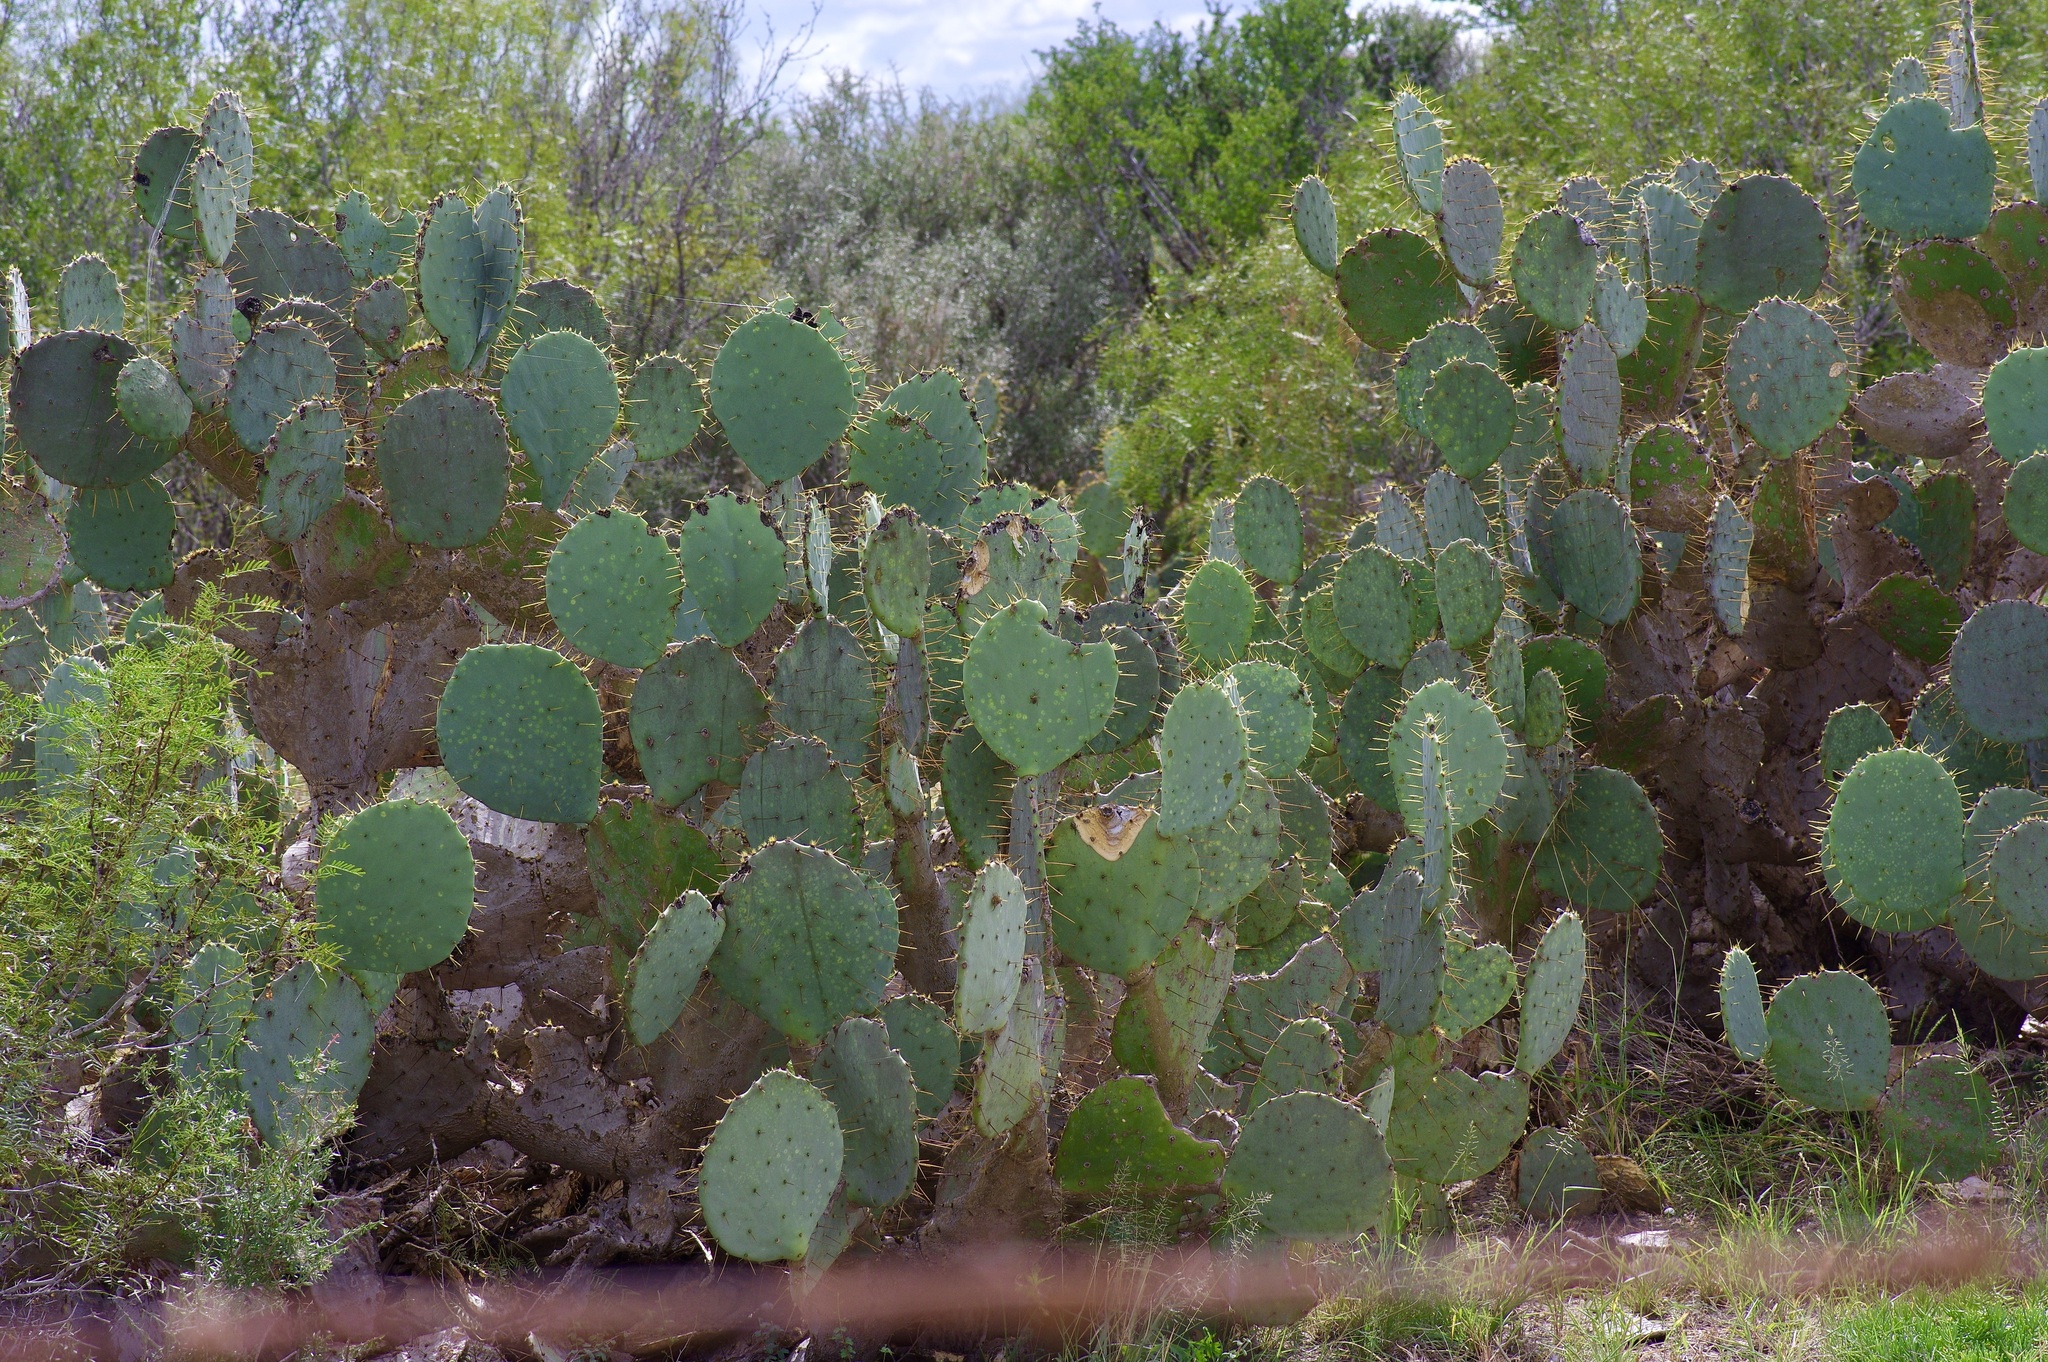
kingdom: Plantae
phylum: Tracheophyta
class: Magnoliopsida
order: Caryophyllales
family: Cactaceae
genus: Opuntia
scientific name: Opuntia engelmannii
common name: Cactus-apple
